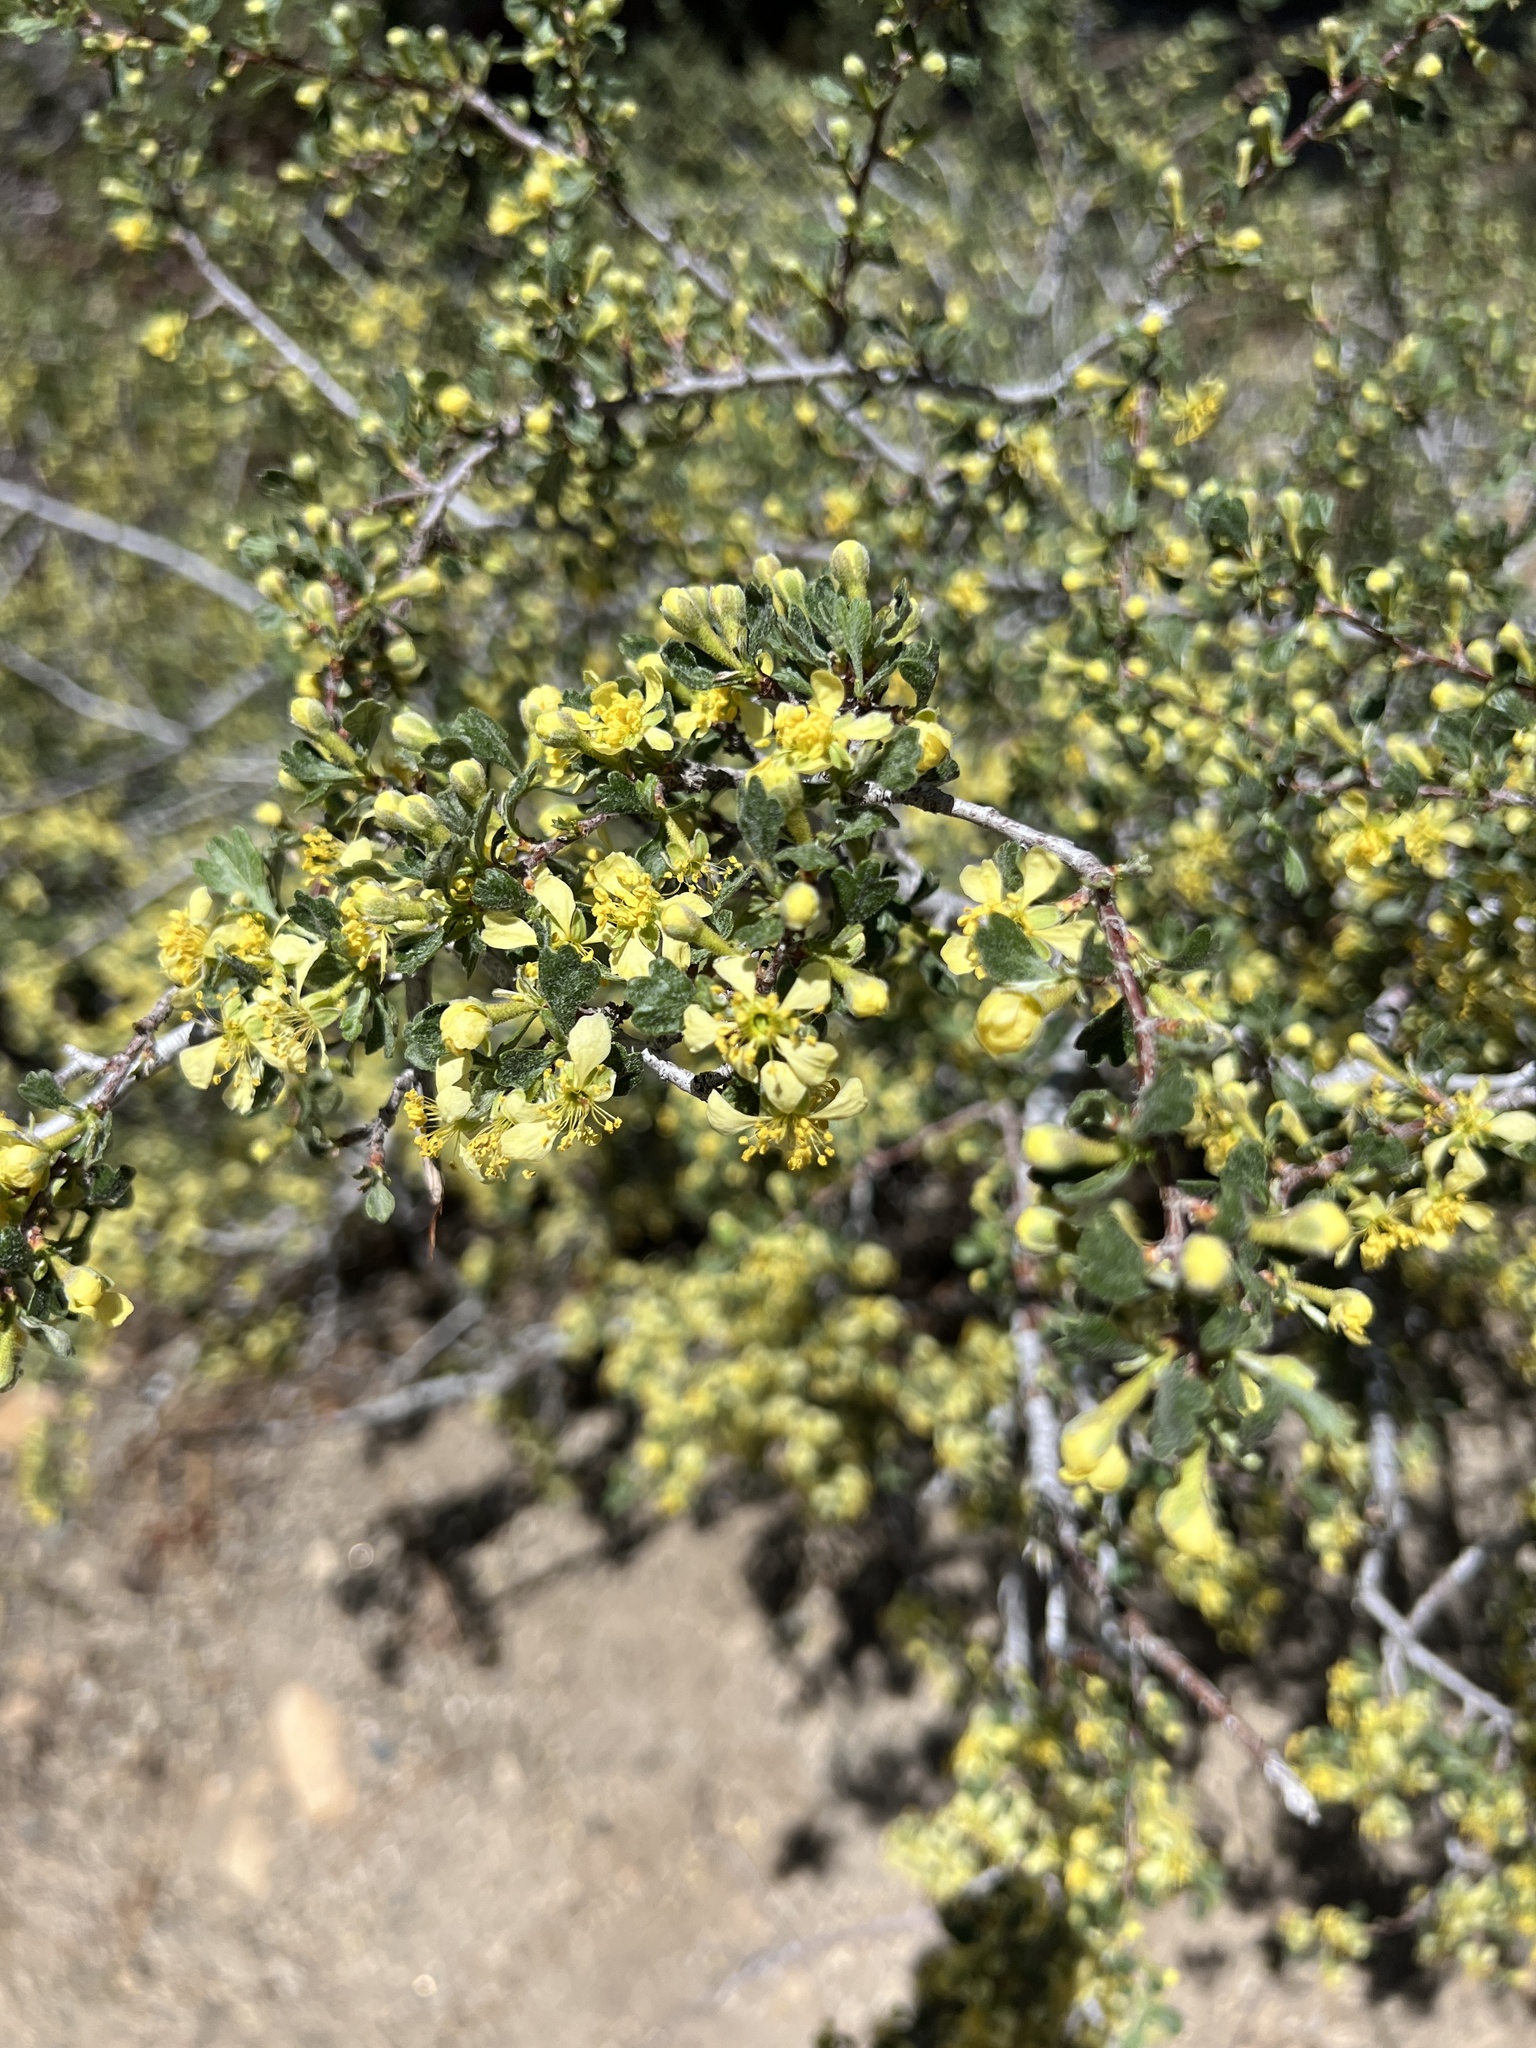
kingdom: Plantae
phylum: Tracheophyta
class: Magnoliopsida
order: Rosales
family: Rosaceae
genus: Purshia
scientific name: Purshia tridentata
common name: Antelope bitterbrush
